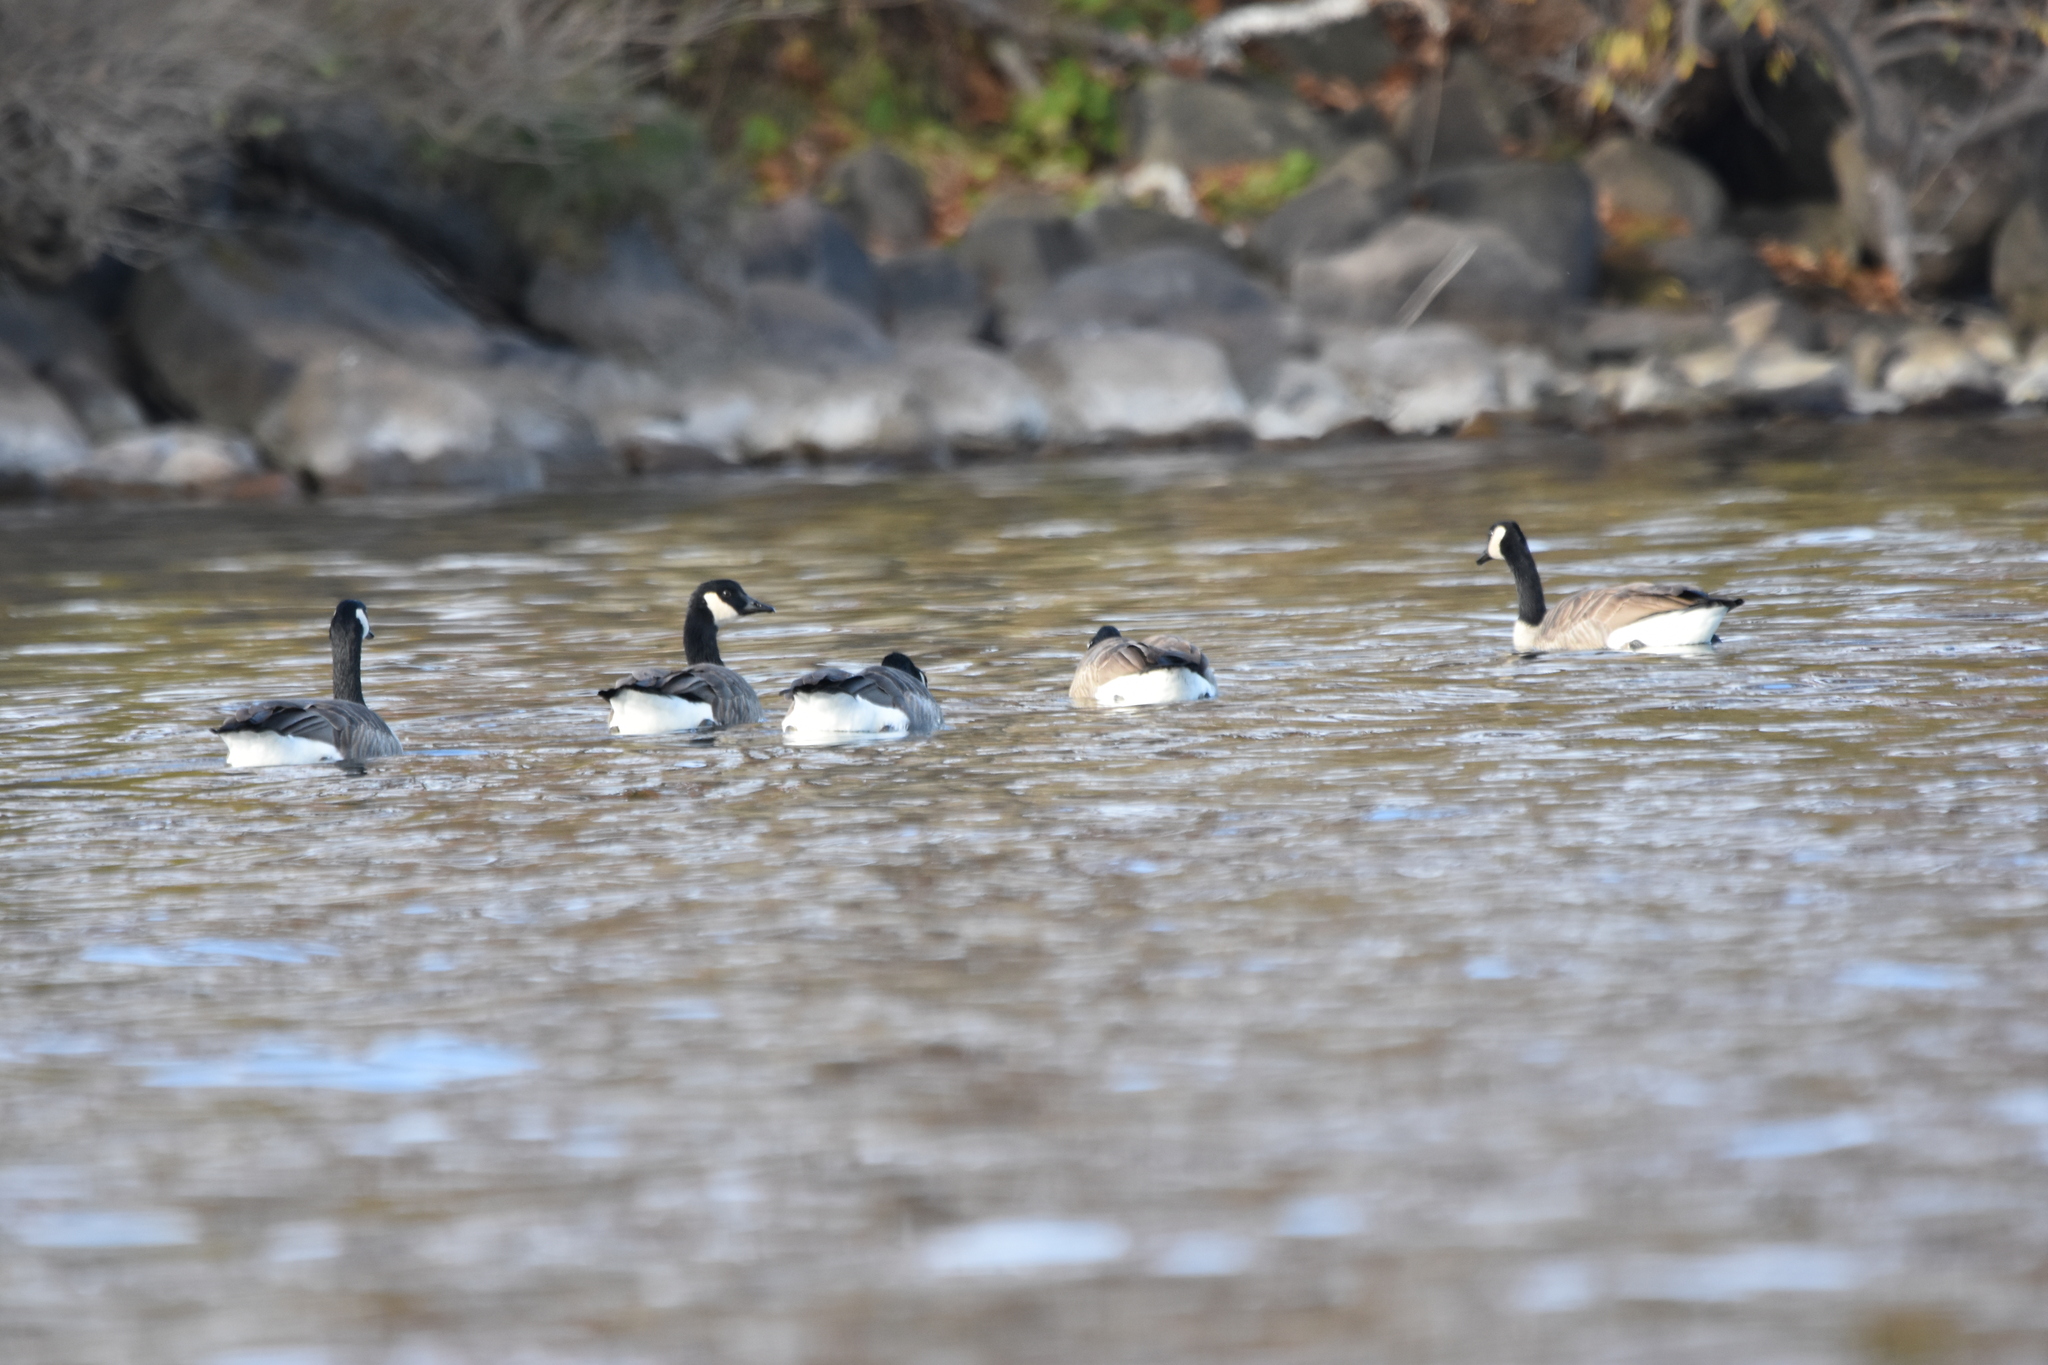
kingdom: Animalia
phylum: Chordata
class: Aves
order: Anseriformes
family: Anatidae
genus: Branta
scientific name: Branta canadensis
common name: Canada goose
